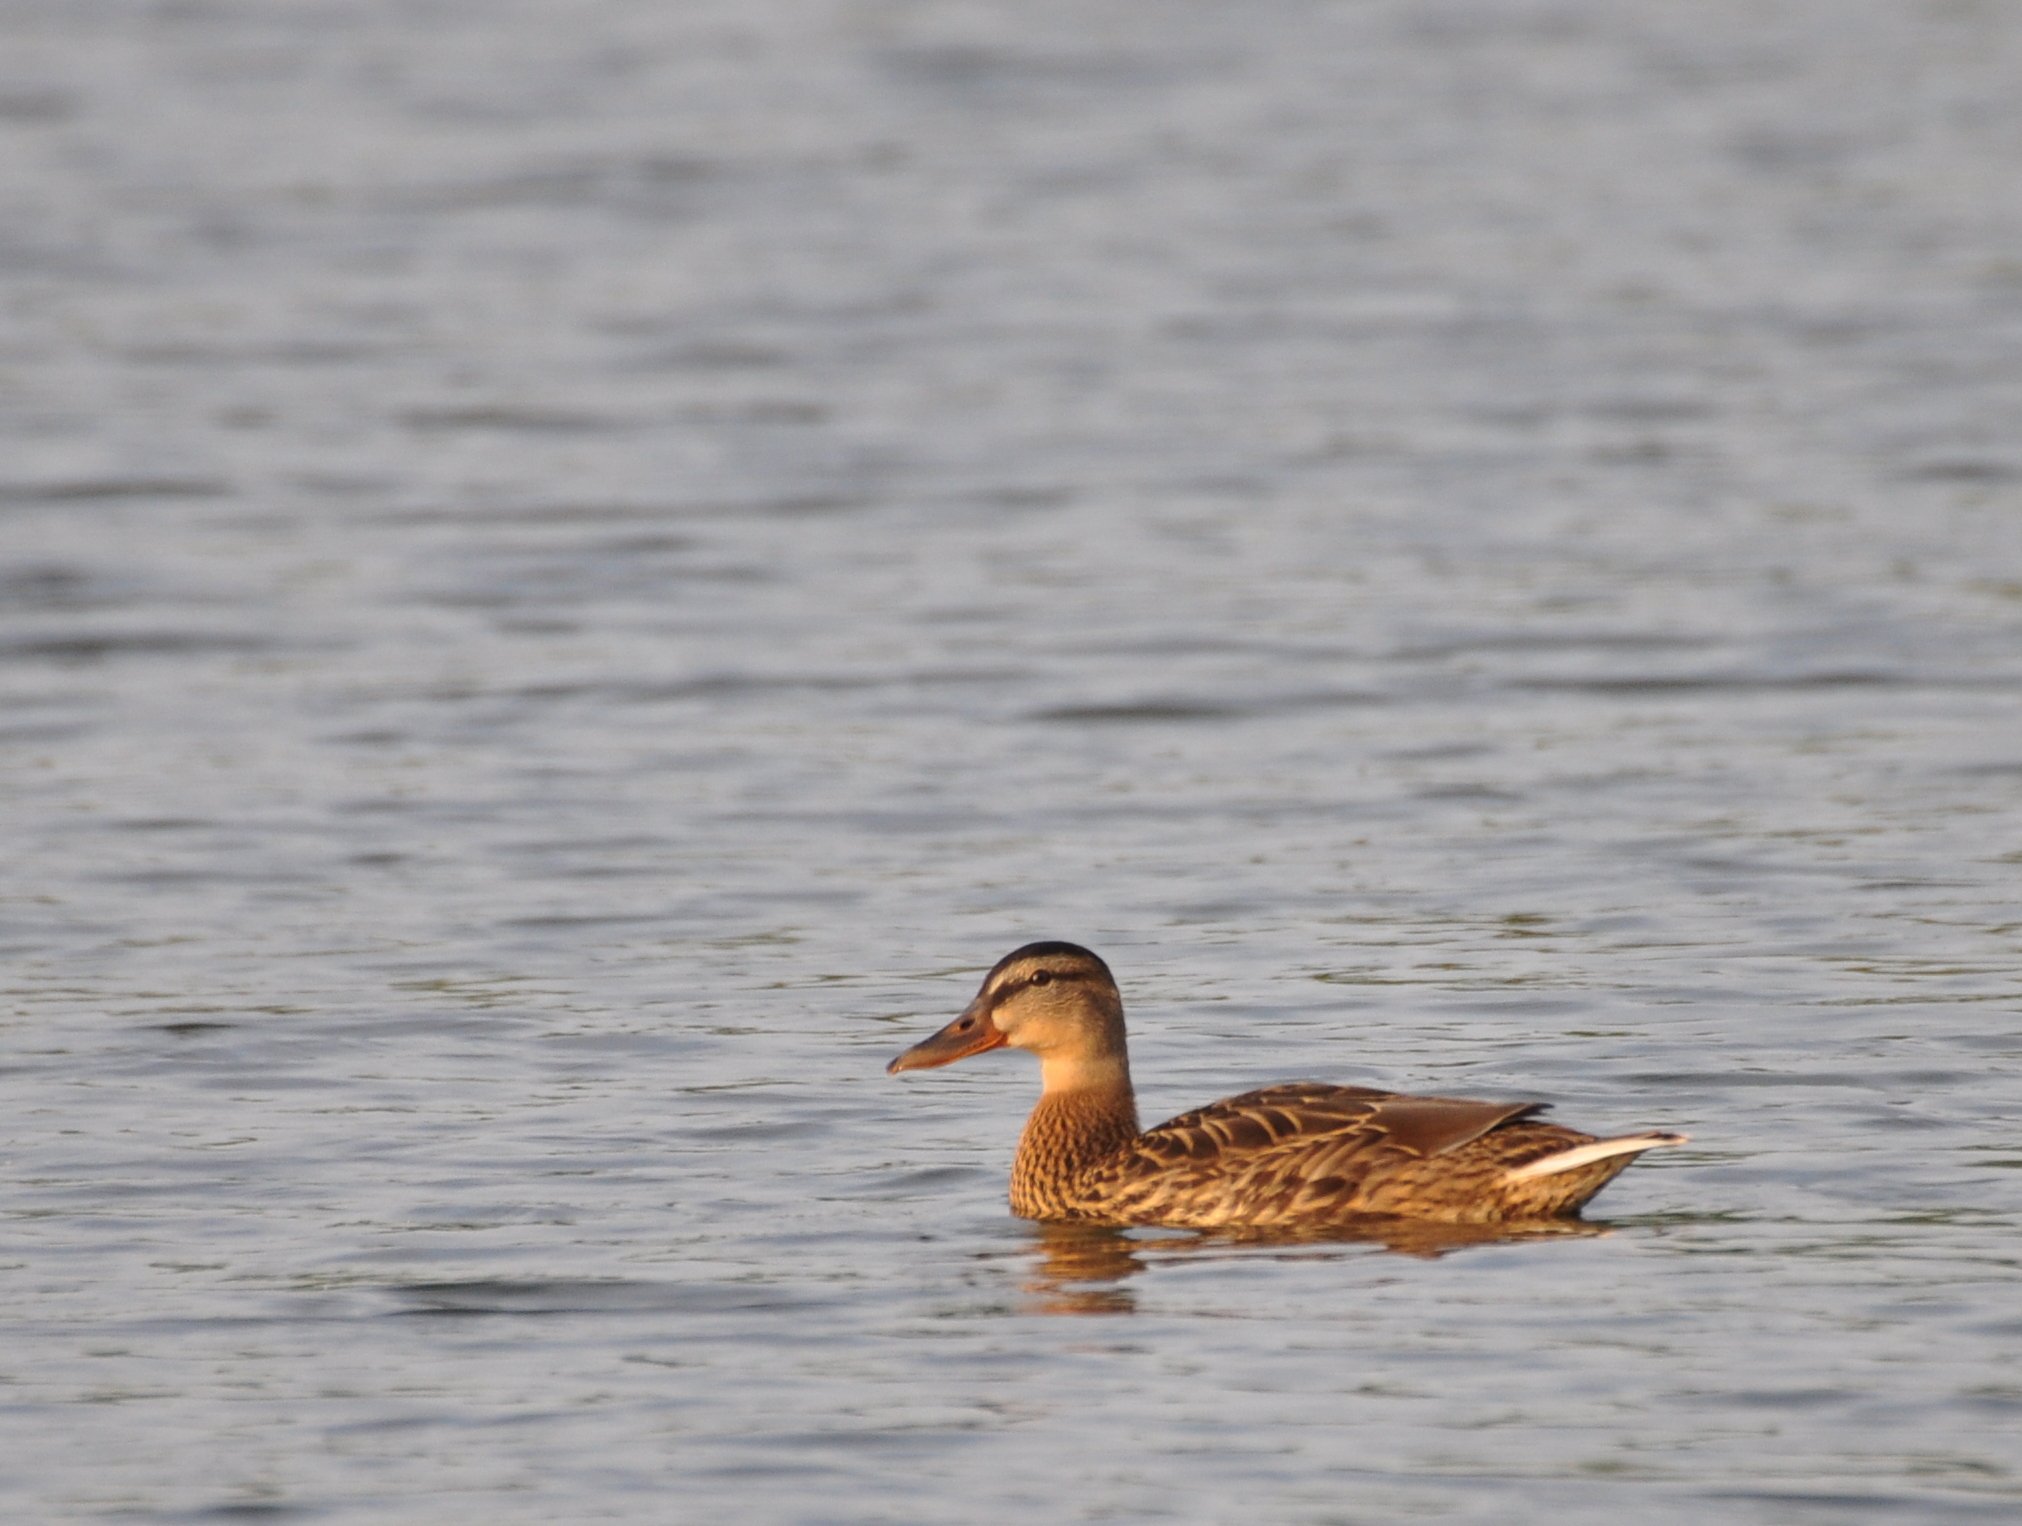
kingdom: Animalia
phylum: Chordata
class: Aves
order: Anseriformes
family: Anatidae
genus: Anas
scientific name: Anas platyrhynchos
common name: Mallard
